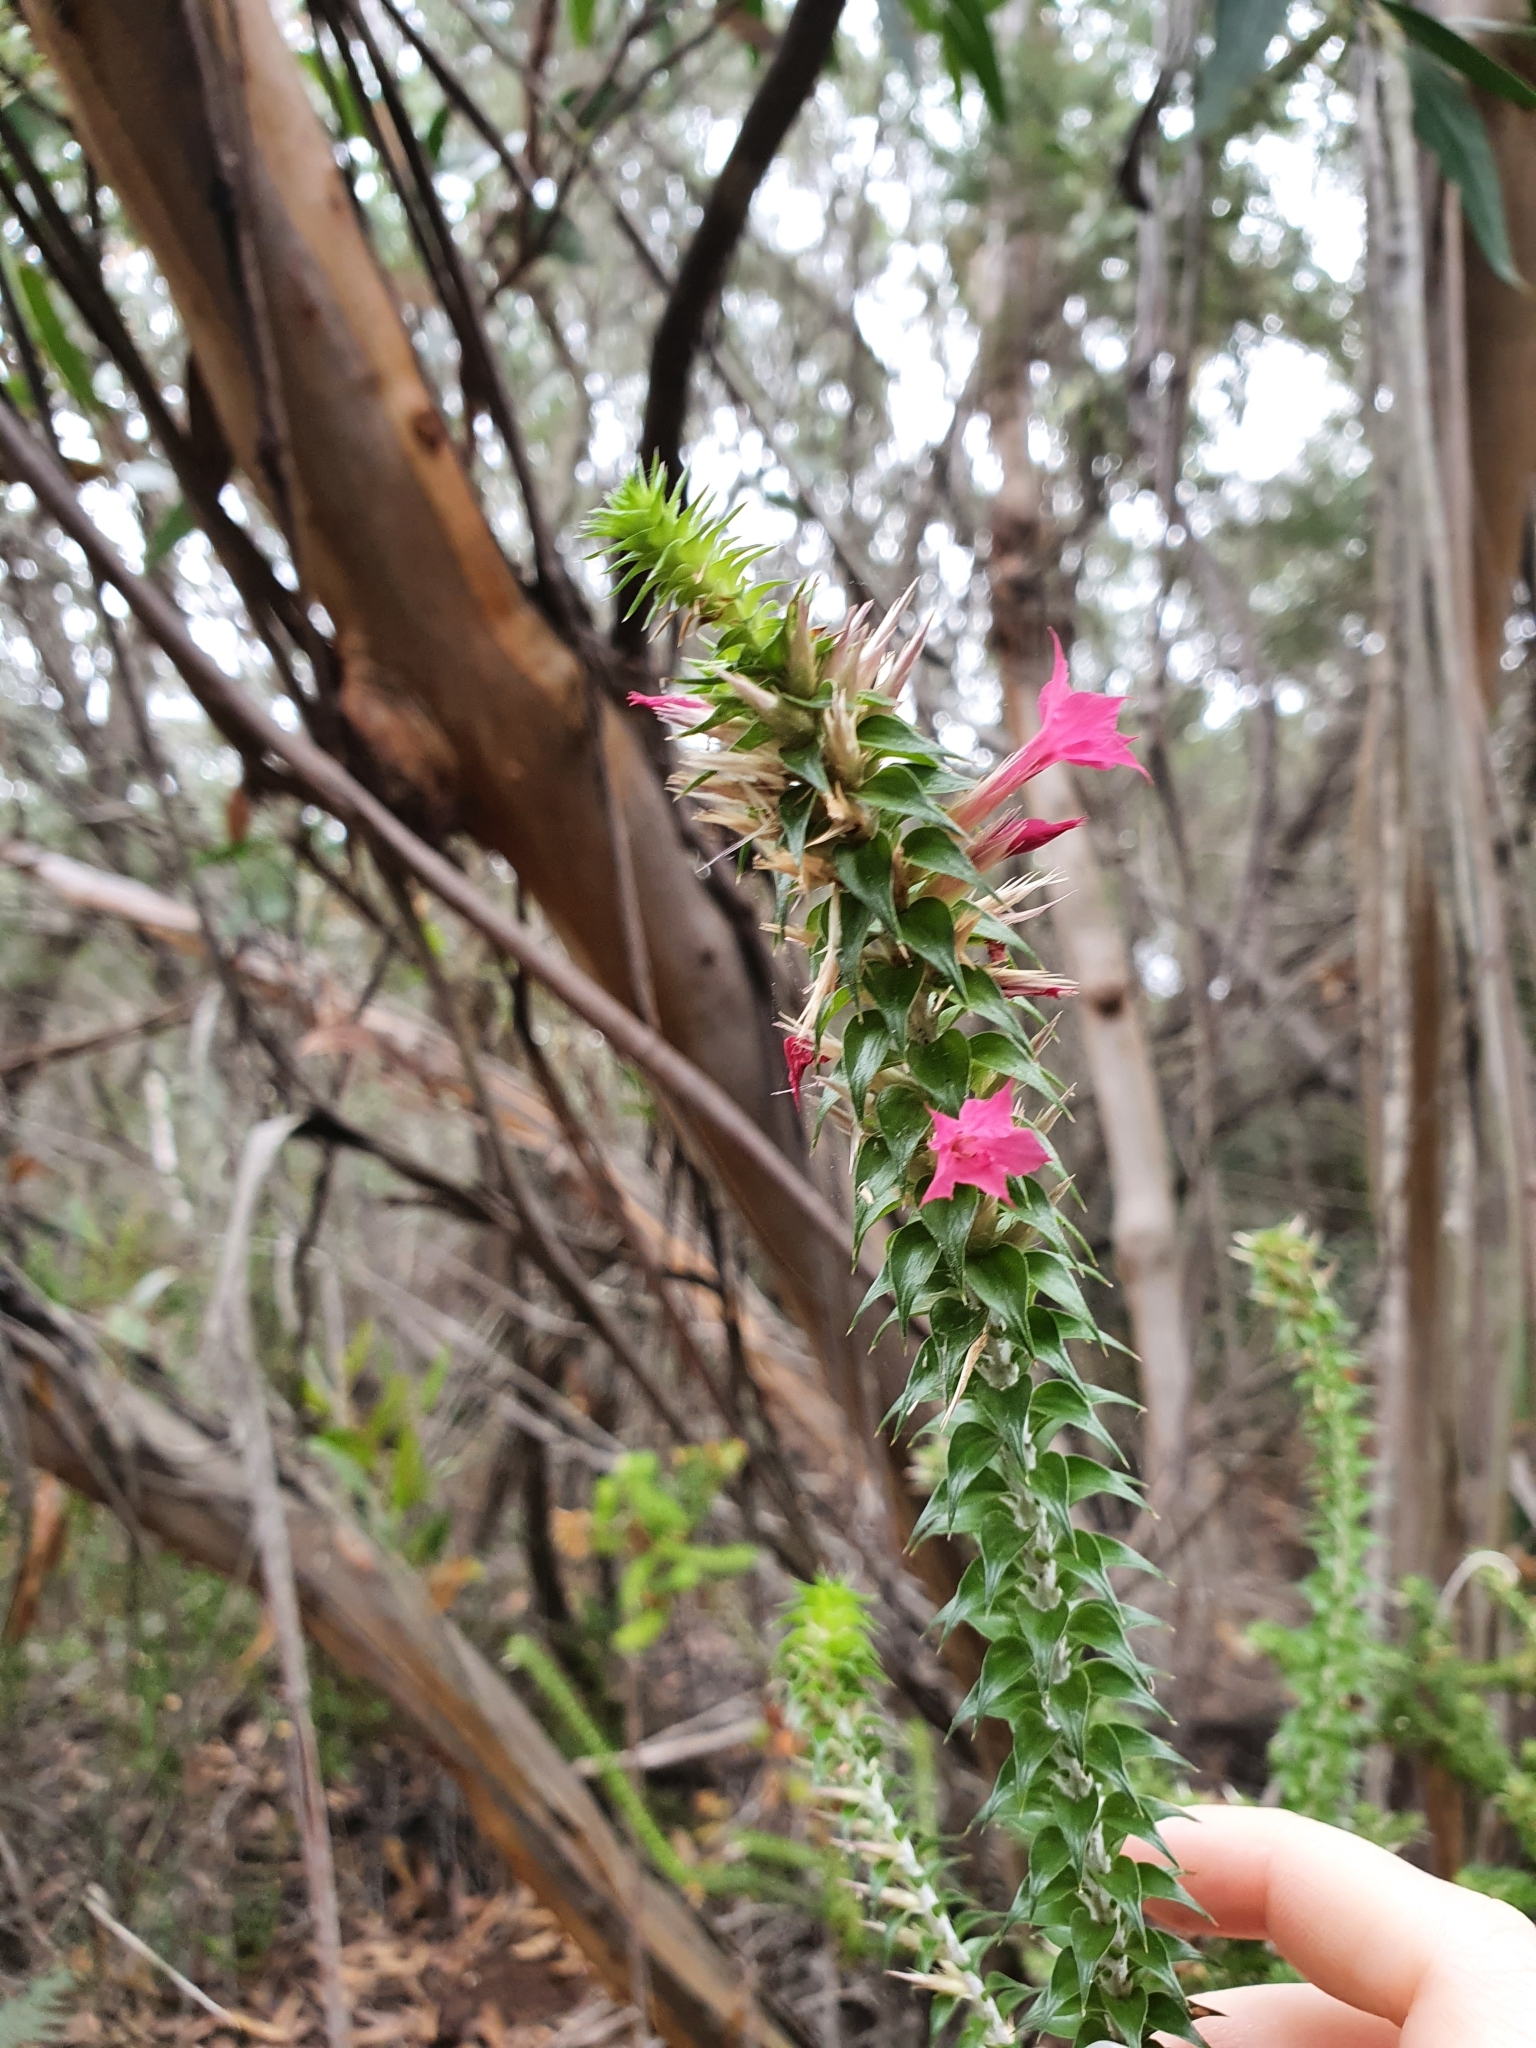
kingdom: Plantae
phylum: Tracheophyta
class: Magnoliopsida
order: Ericales
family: Ericaceae
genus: Woollsia
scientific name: Woollsia pungens
